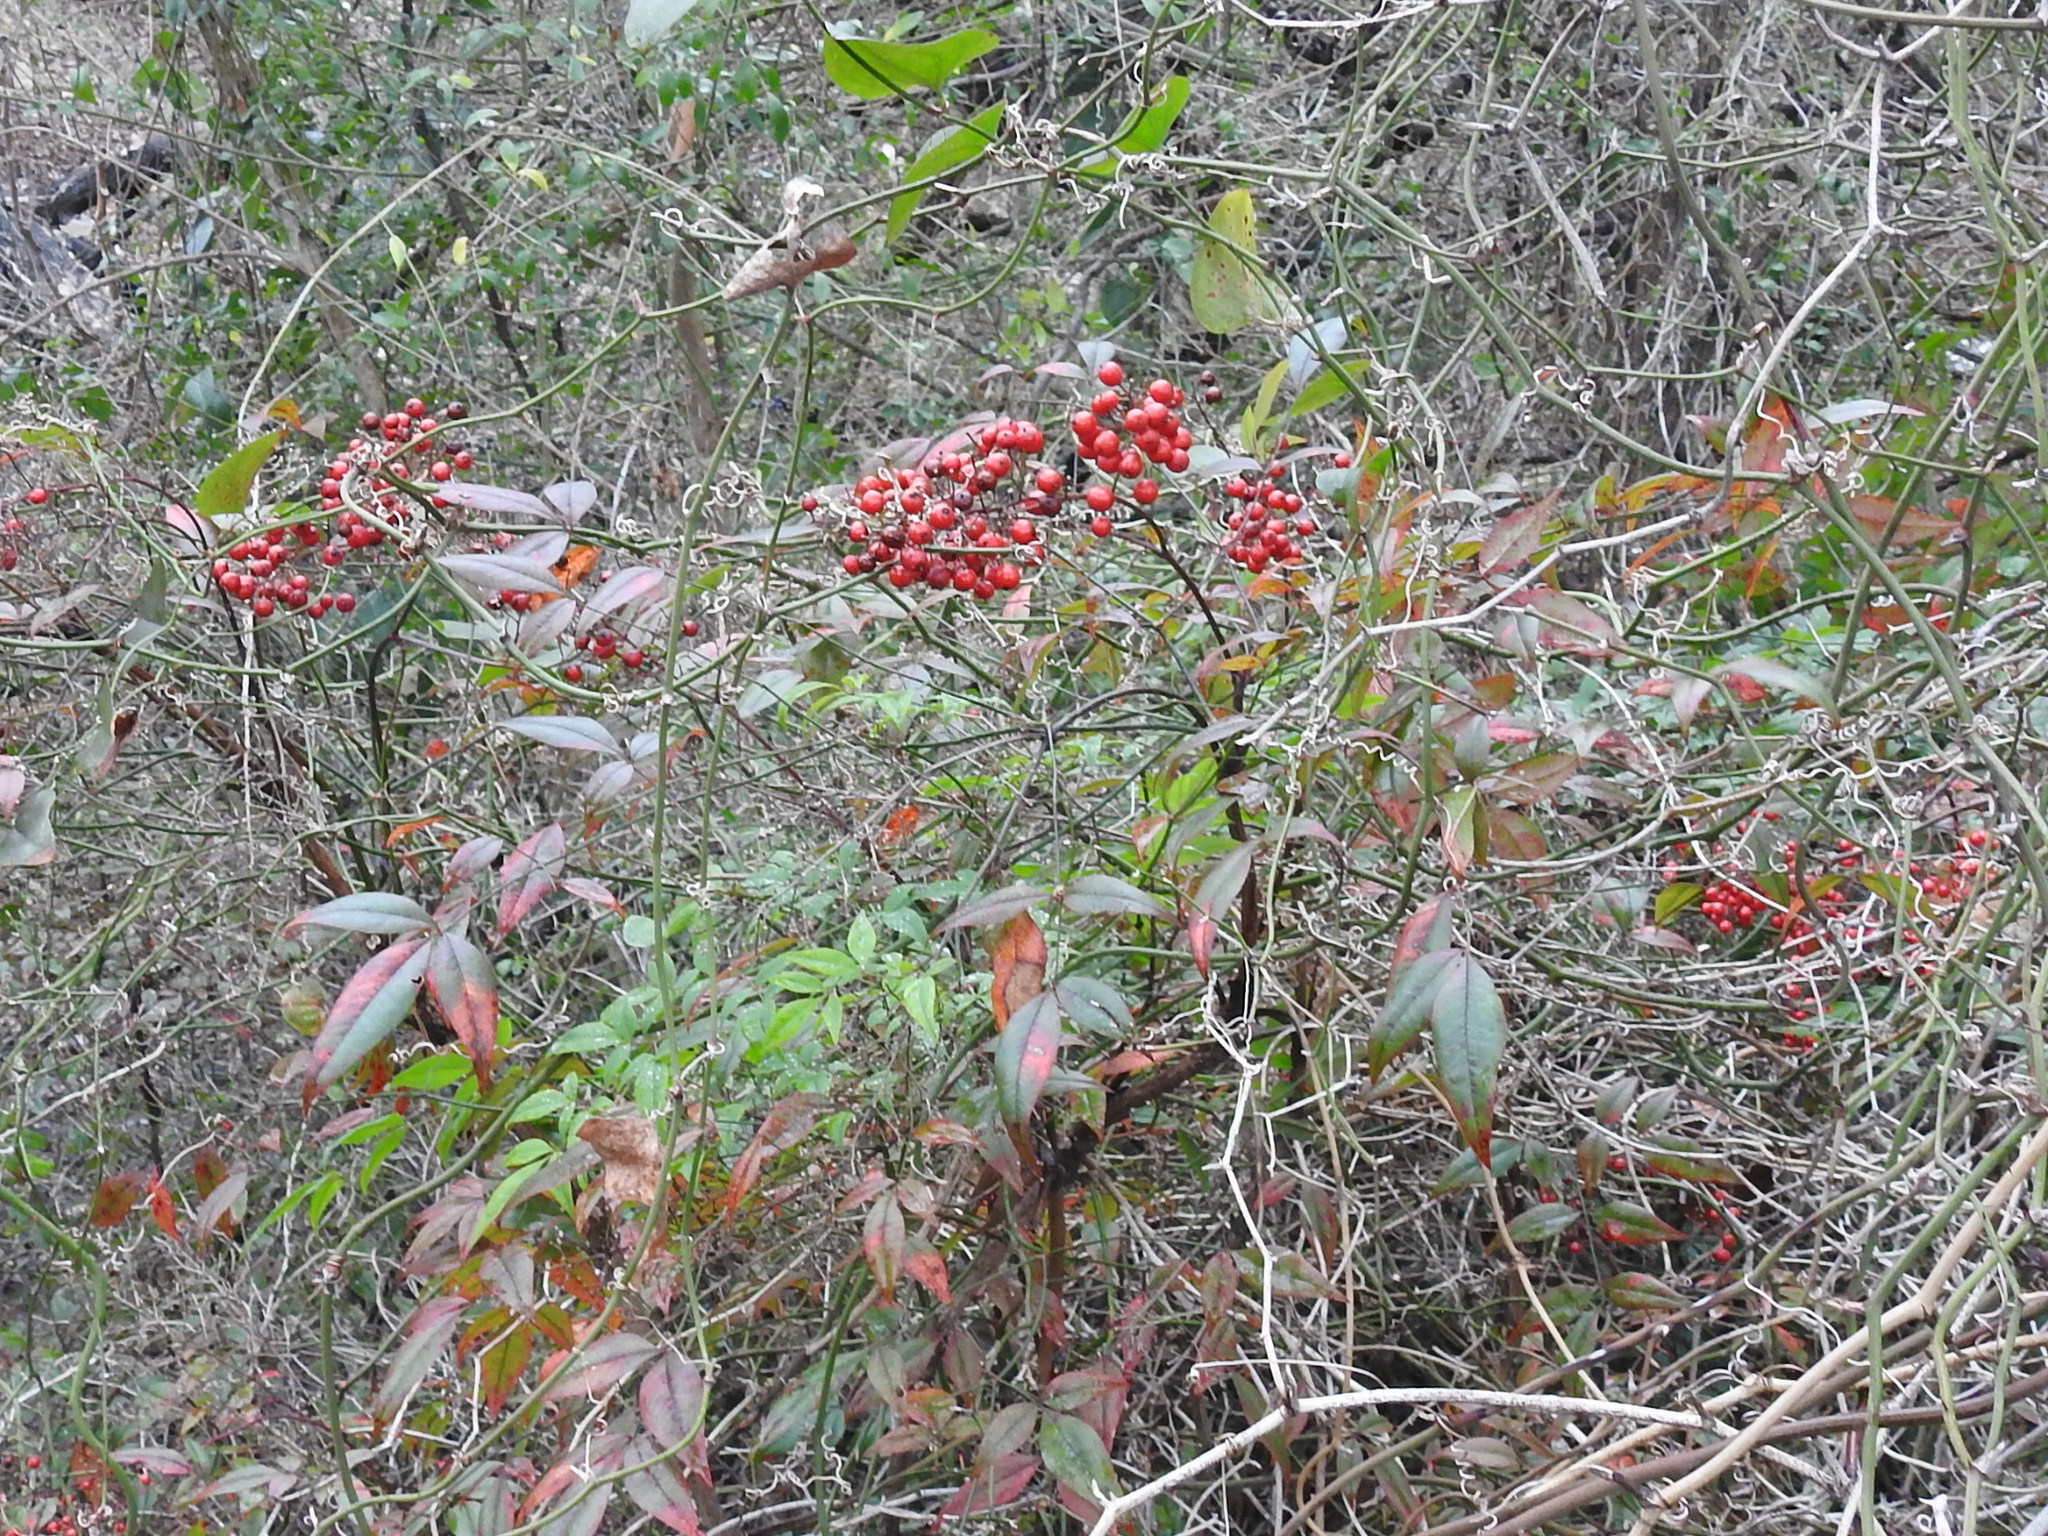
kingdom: Plantae
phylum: Tracheophyta
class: Magnoliopsida
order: Ranunculales
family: Berberidaceae
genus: Nandina
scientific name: Nandina domestica
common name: Sacred bamboo
